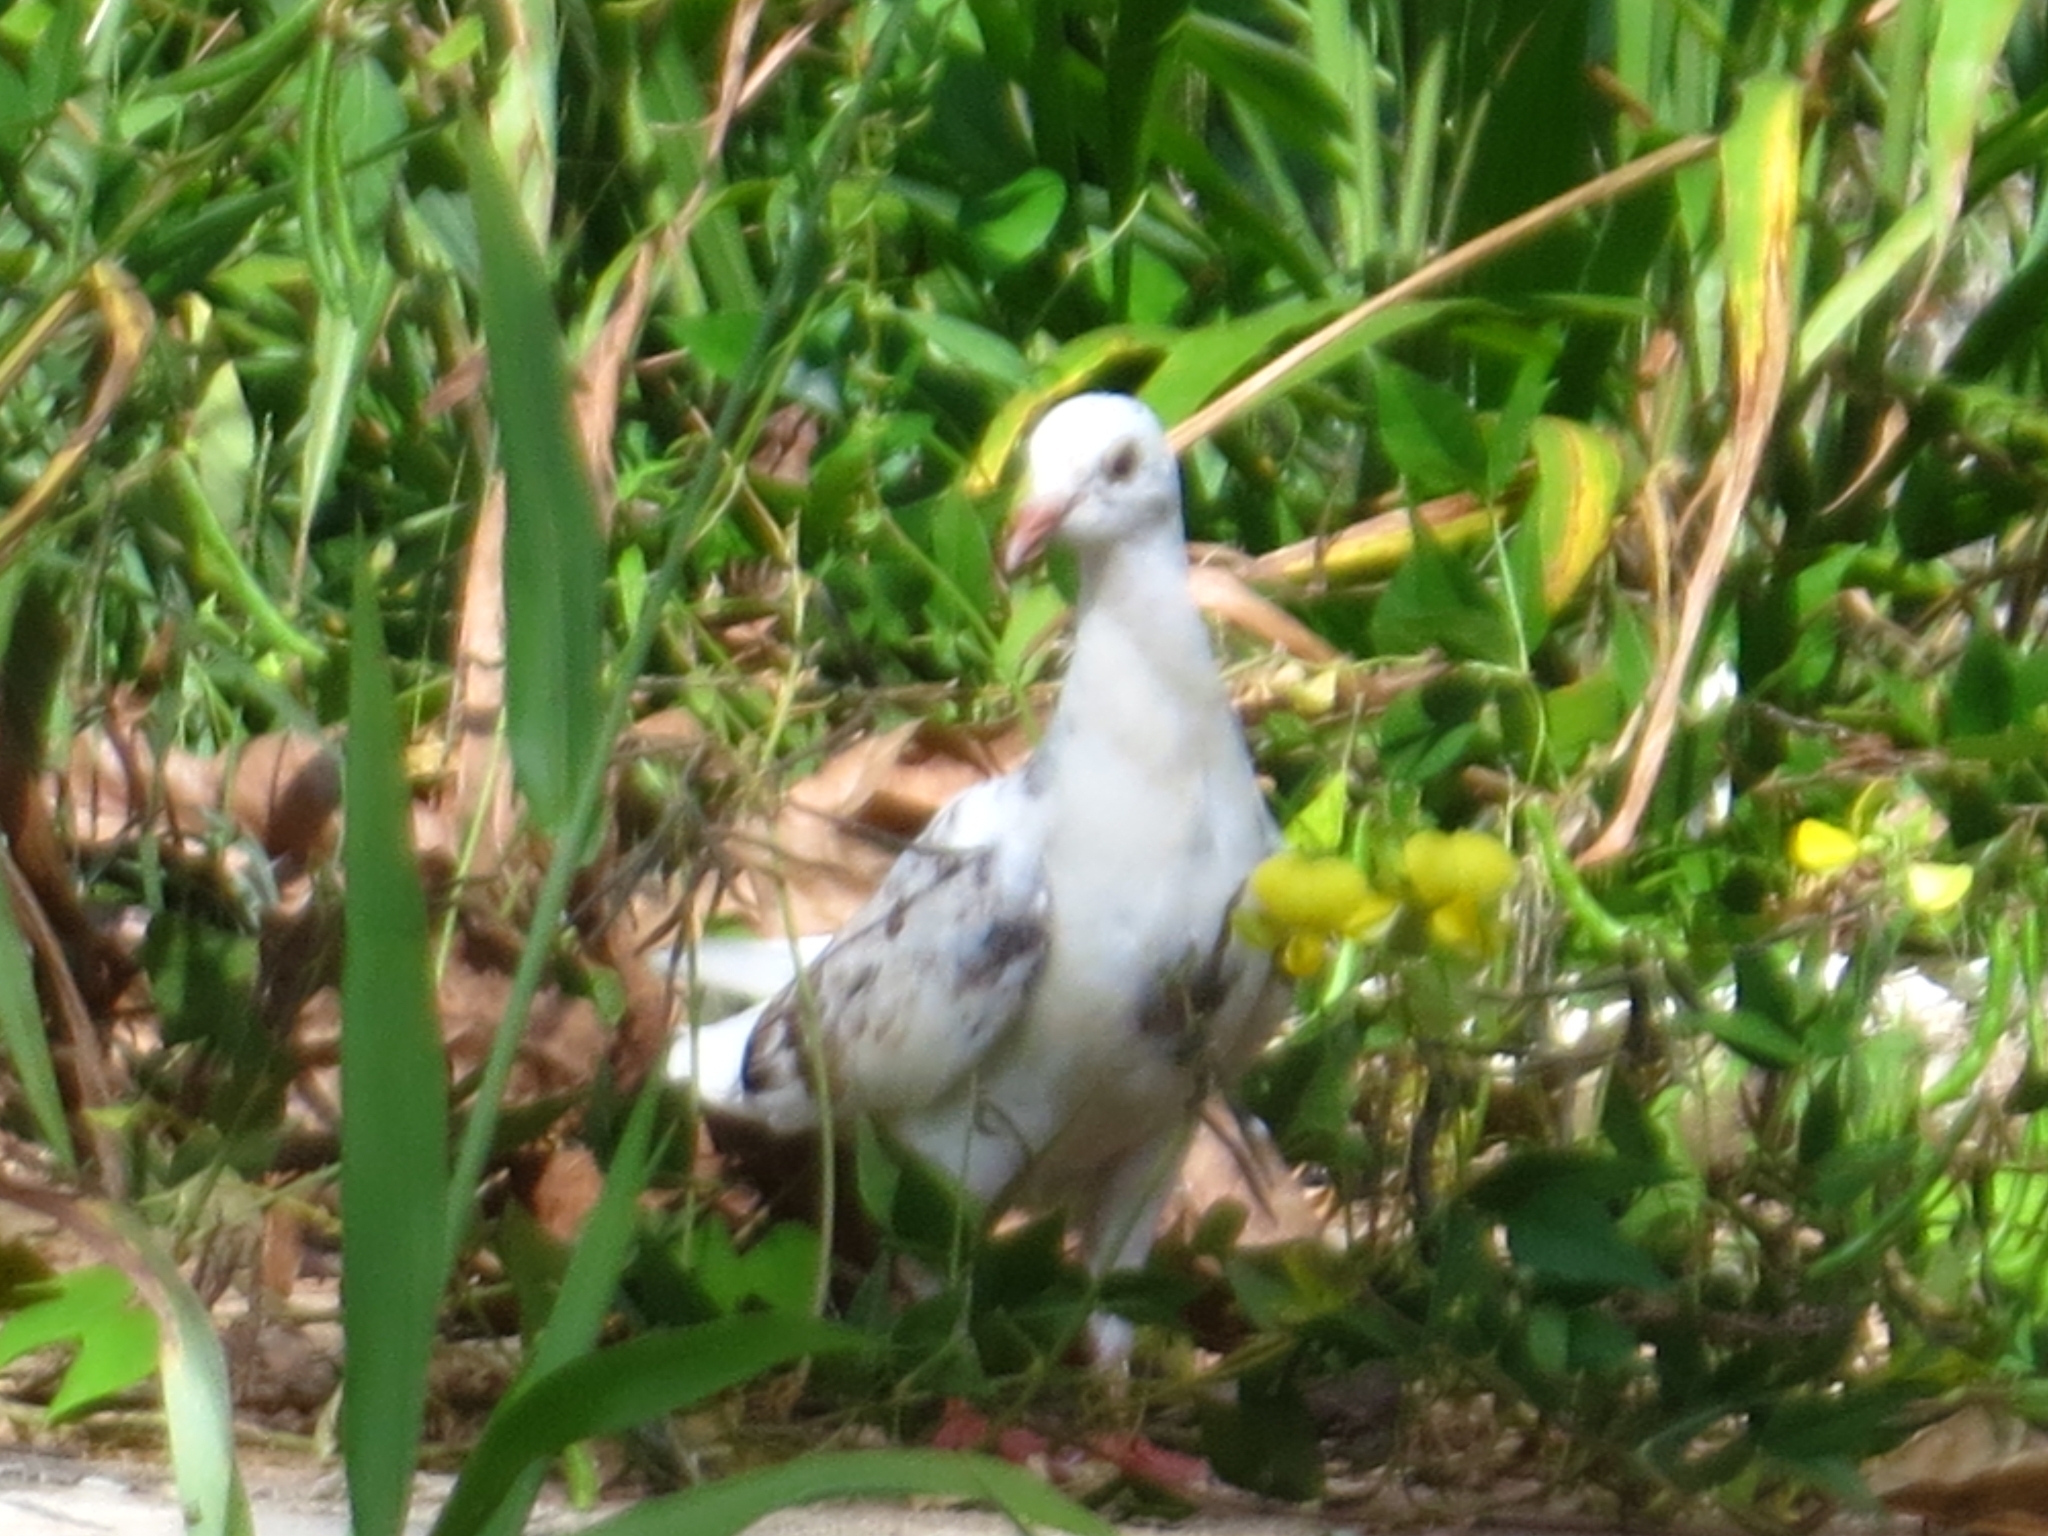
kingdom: Animalia
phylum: Chordata
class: Aves
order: Columbiformes
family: Columbidae
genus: Columba
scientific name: Columba livia
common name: Rock pigeon
